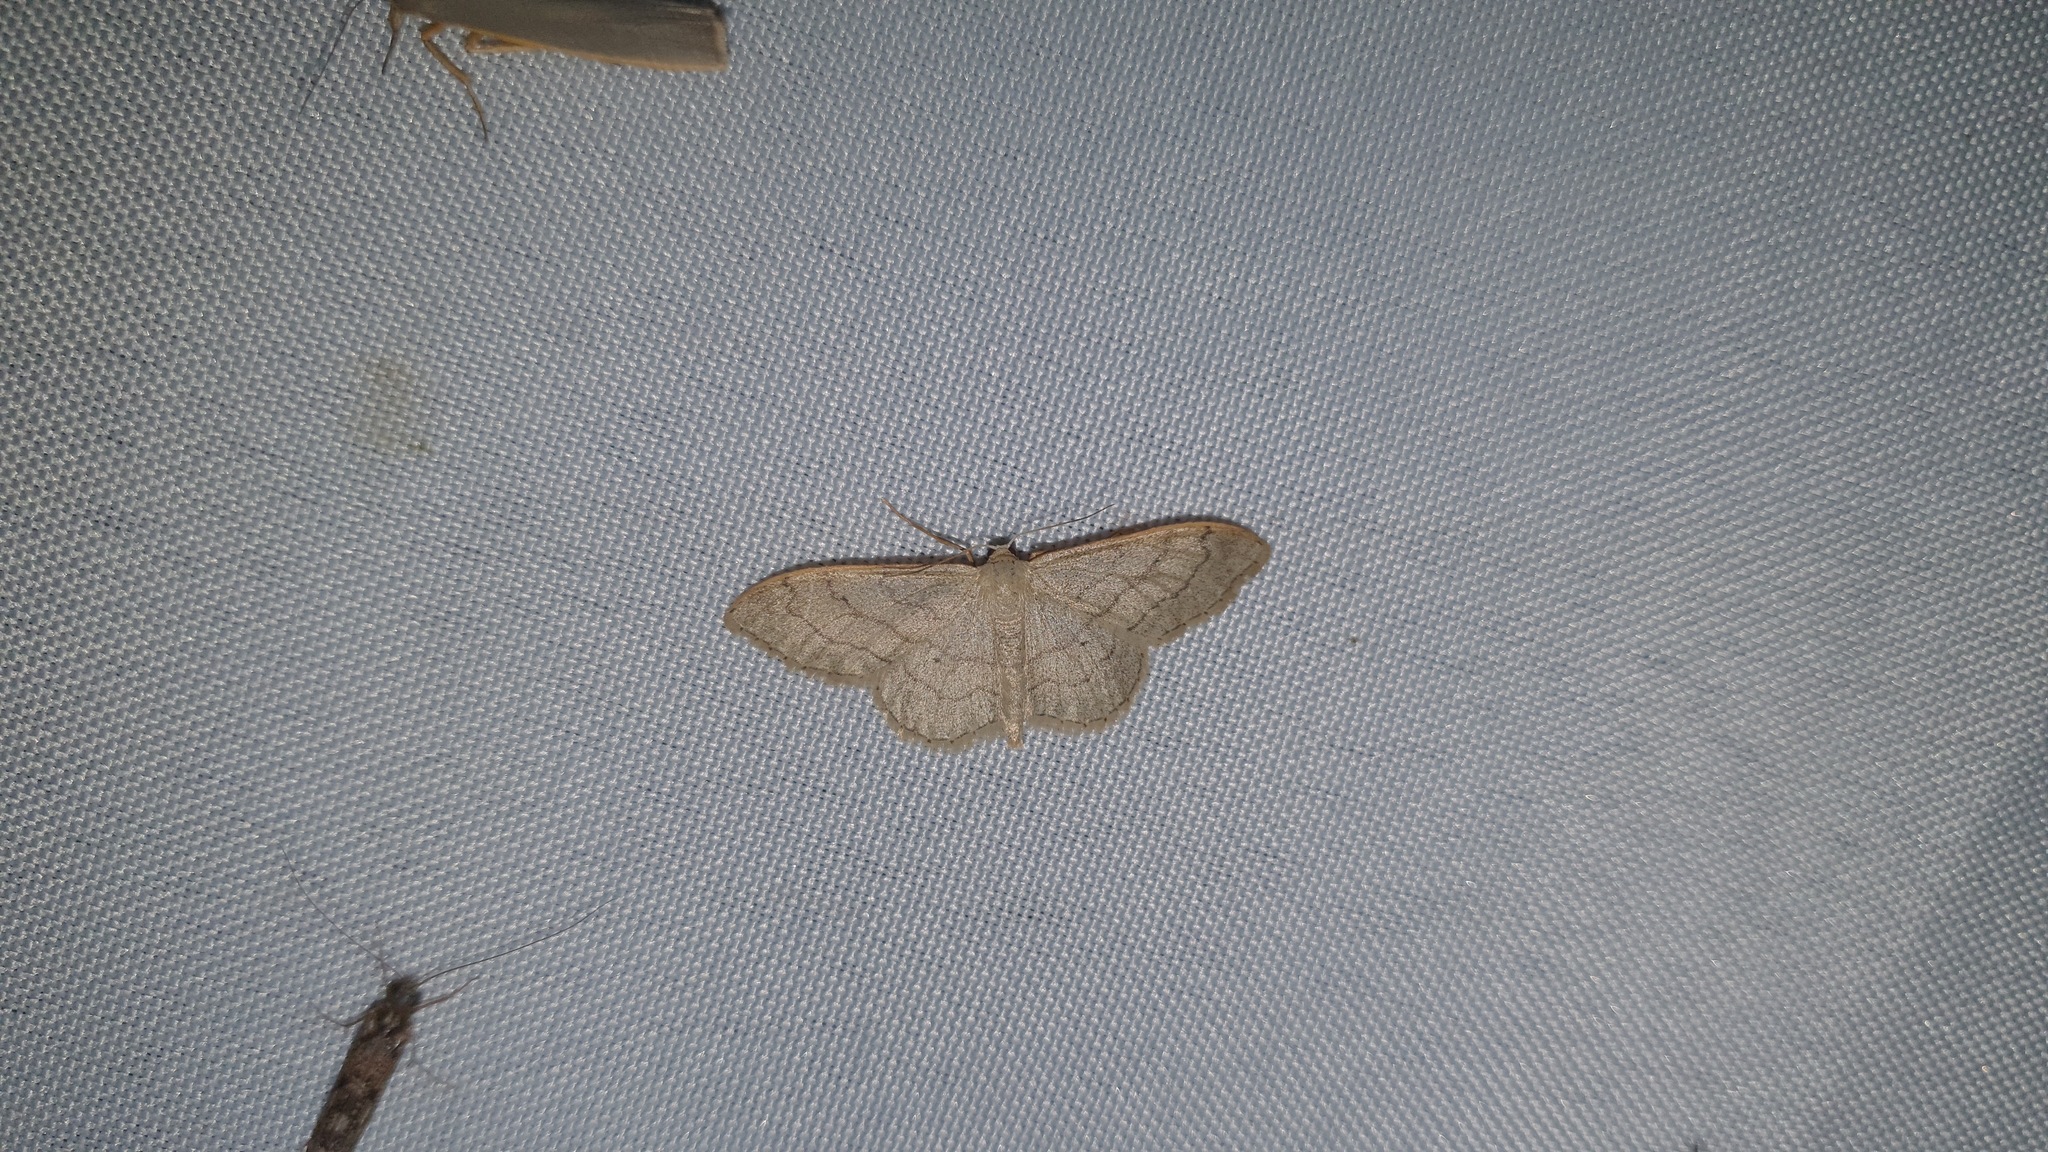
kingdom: Animalia
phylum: Arthropoda
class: Insecta
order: Lepidoptera
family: Geometridae
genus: Idaea
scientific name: Idaea aversata
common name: Riband wave
